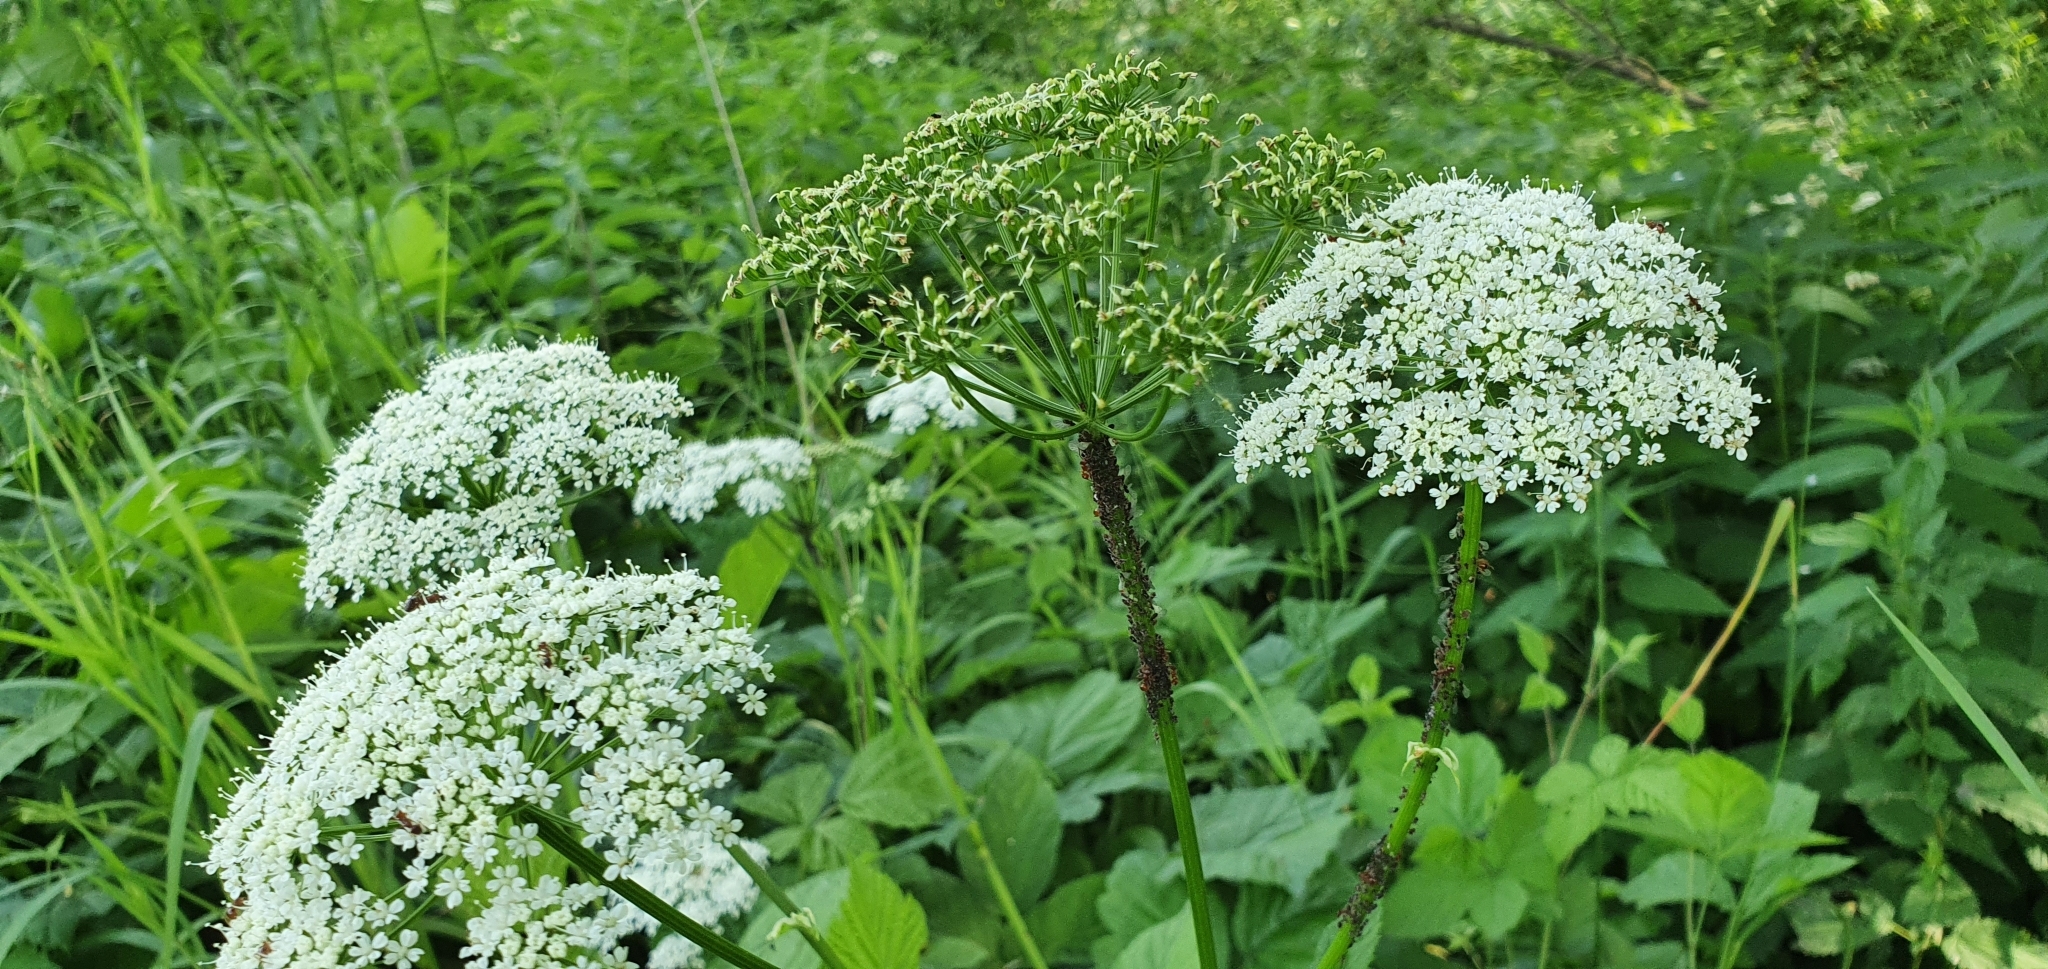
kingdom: Plantae
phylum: Tracheophyta
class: Magnoliopsida
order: Apiales
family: Apiaceae
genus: Aegopodium
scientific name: Aegopodium podagraria
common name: Ground-elder
